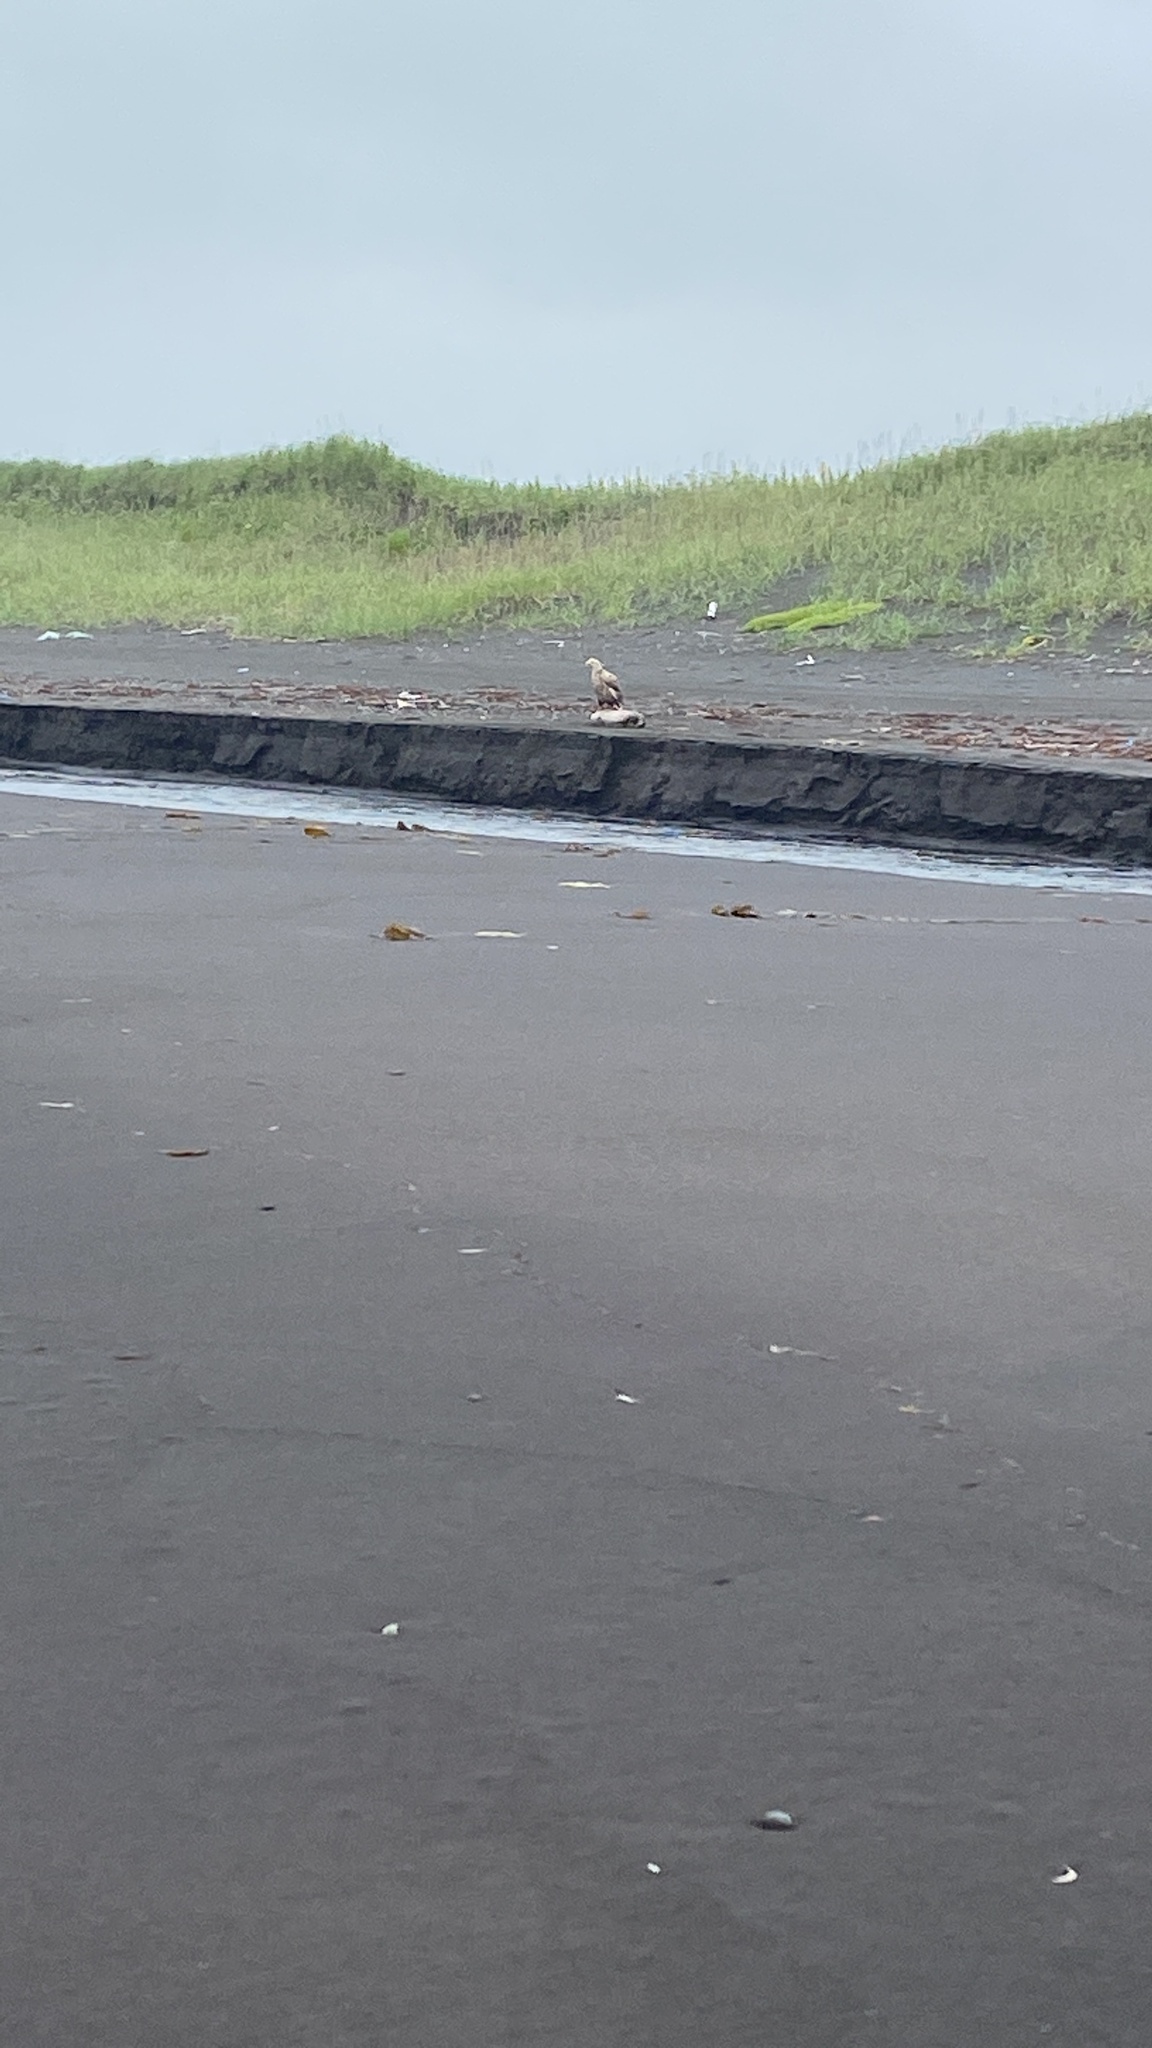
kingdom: Animalia
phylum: Chordata
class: Aves
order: Accipitriformes
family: Accipitridae
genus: Haliaeetus
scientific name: Haliaeetus albicilla
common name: White-tailed eagle
